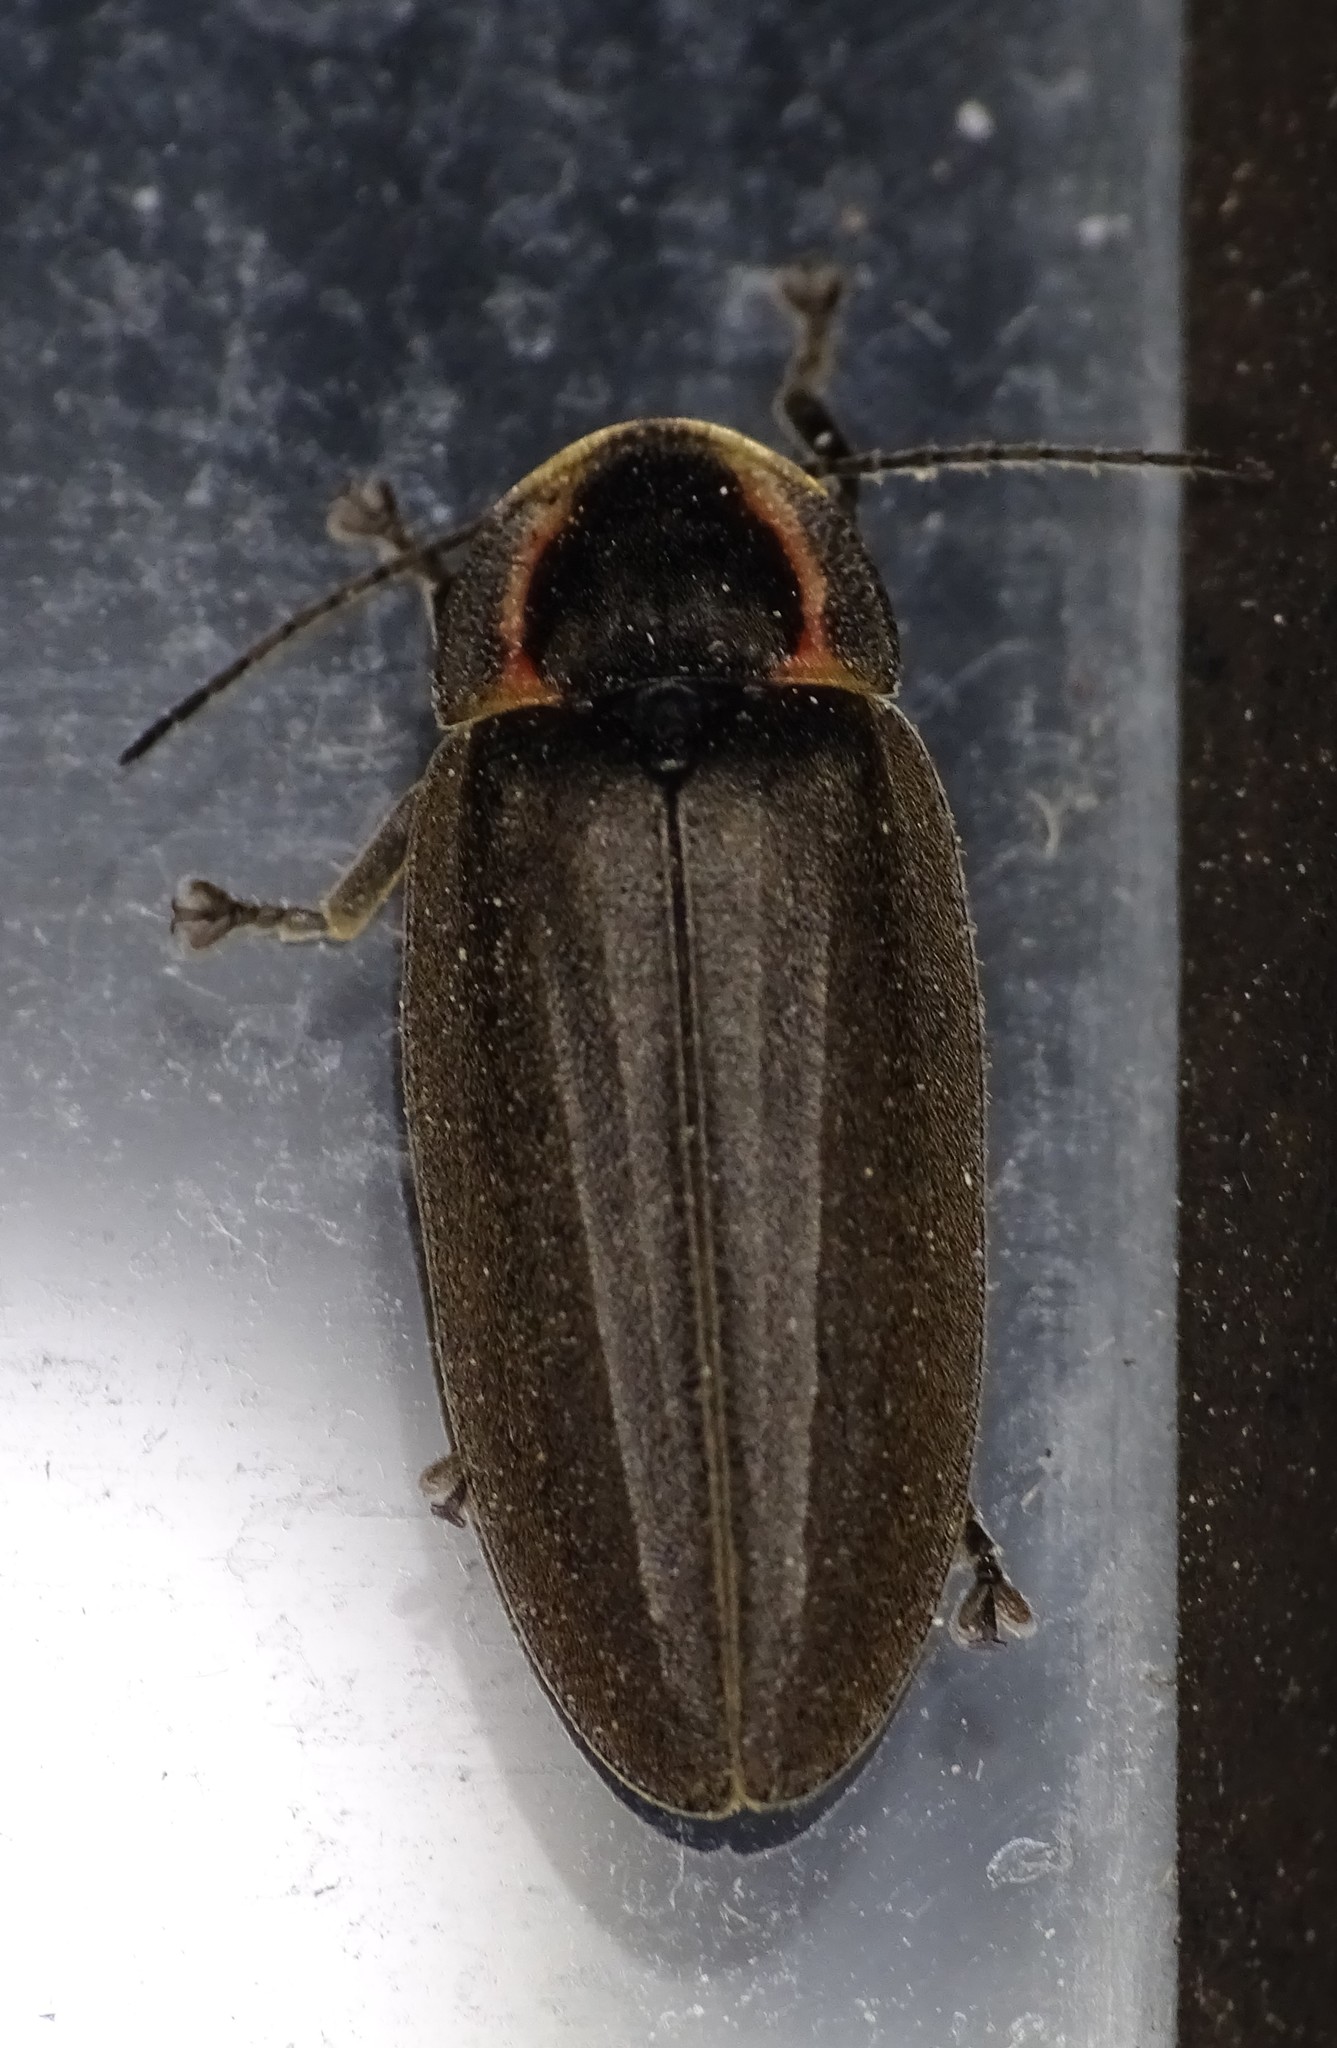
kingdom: Animalia
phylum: Arthropoda
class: Insecta
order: Coleoptera
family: Lampyridae
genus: Photinus
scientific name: Photinus corrusca
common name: Winter firefly
